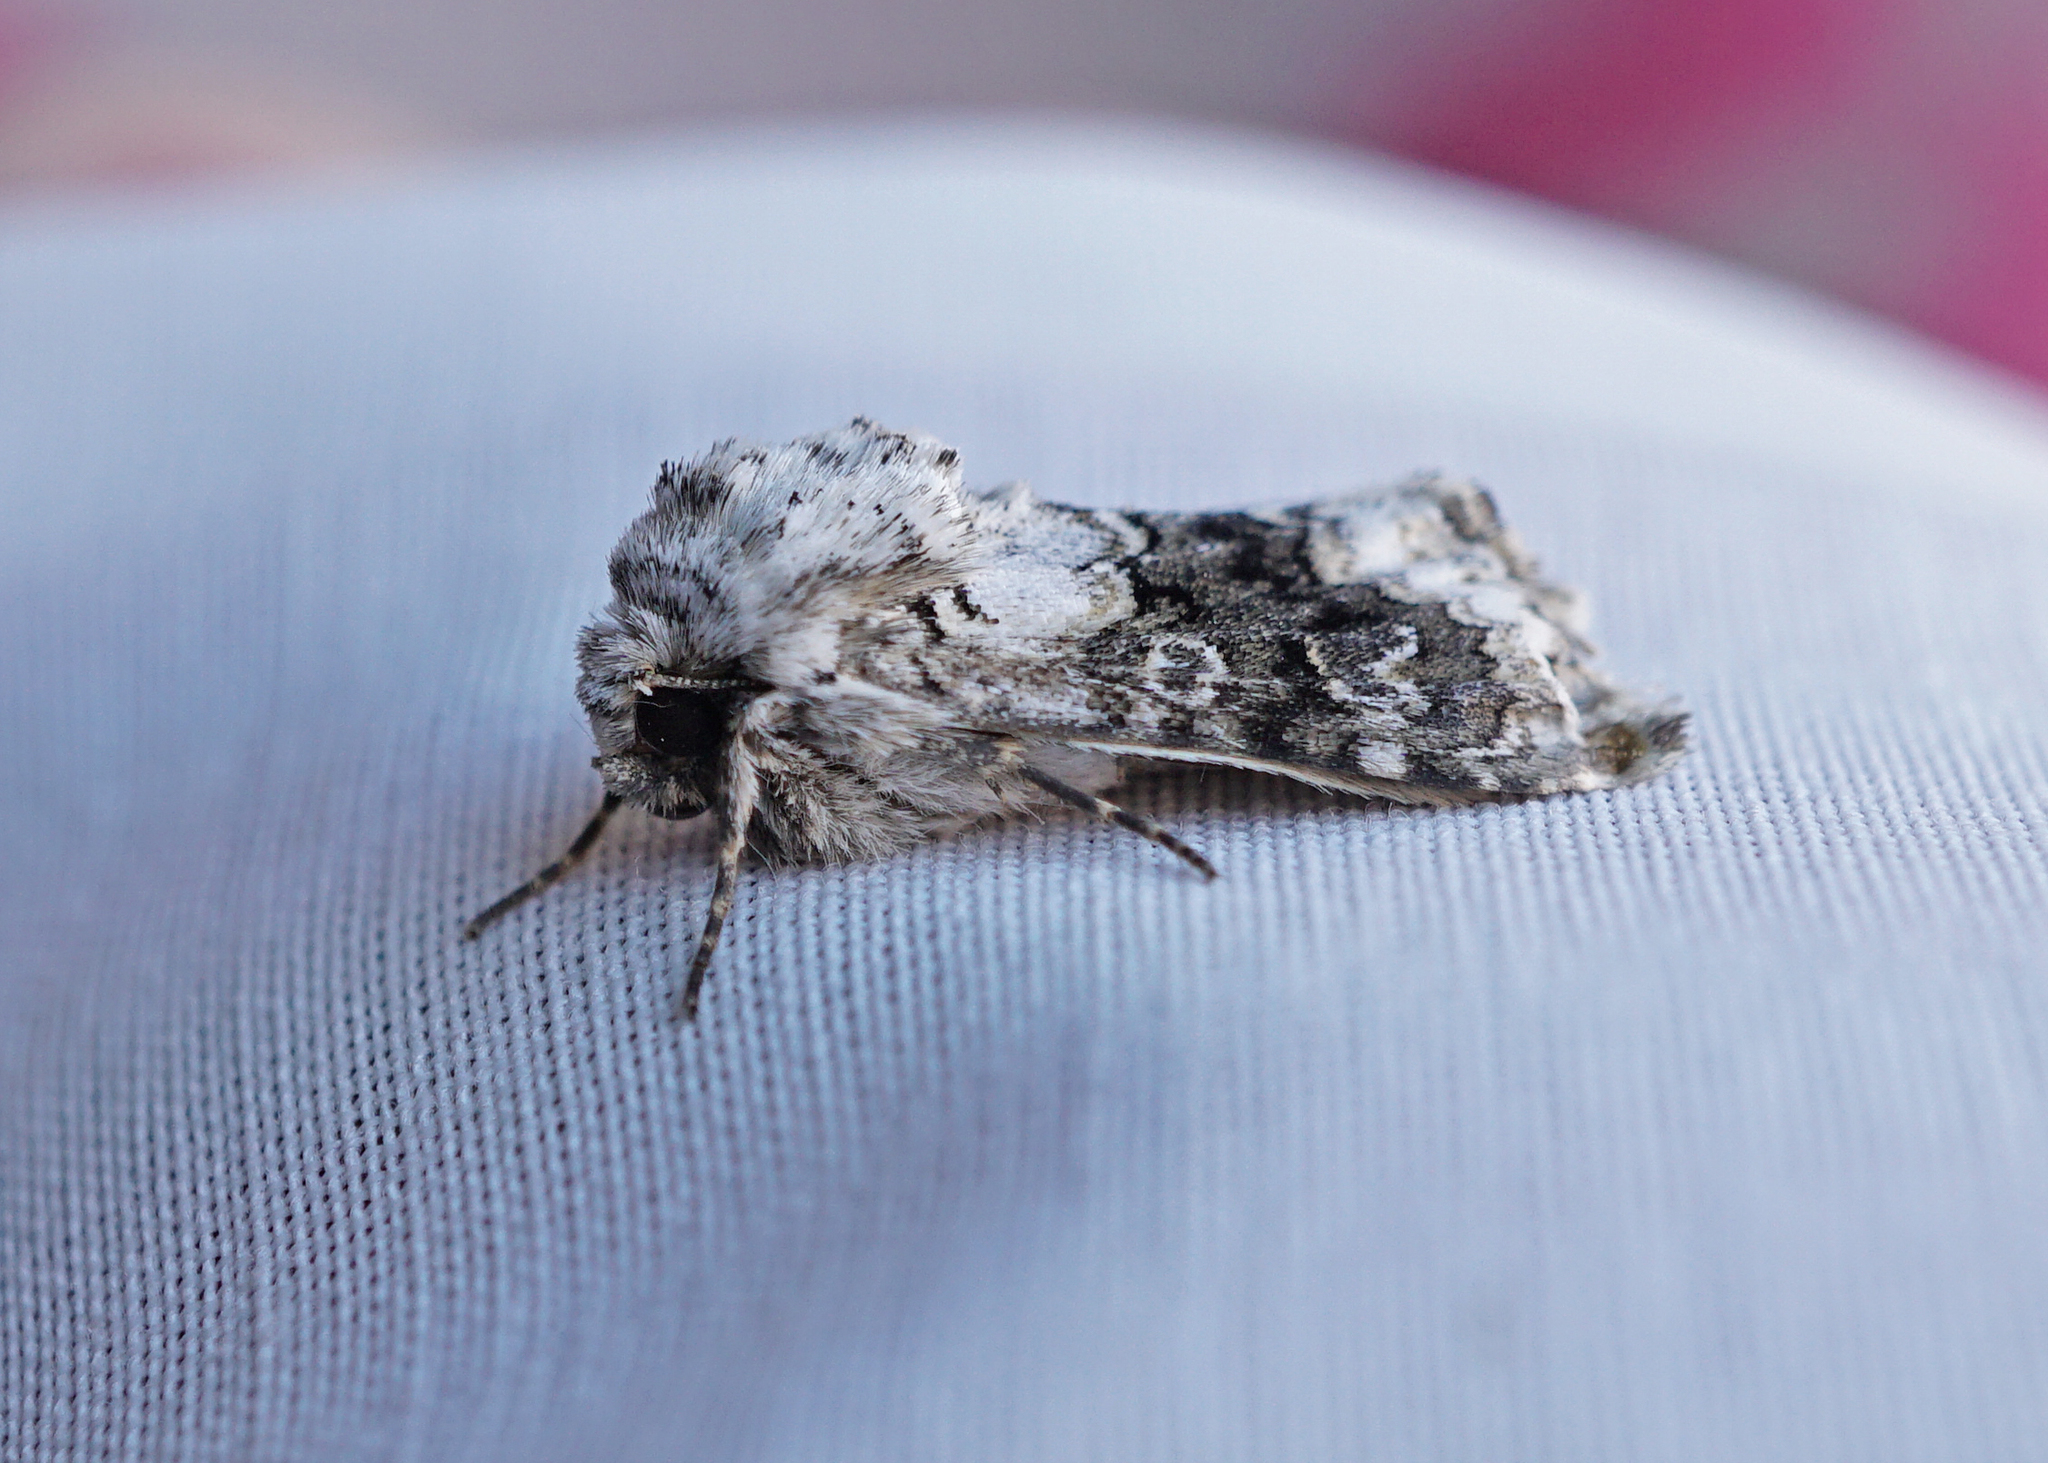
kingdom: Animalia
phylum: Arthropoda
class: Insecta
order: Lepidoptera
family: Noctuidae
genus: Hecatera
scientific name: Hecatera bicolorata
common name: Broad-barred white
